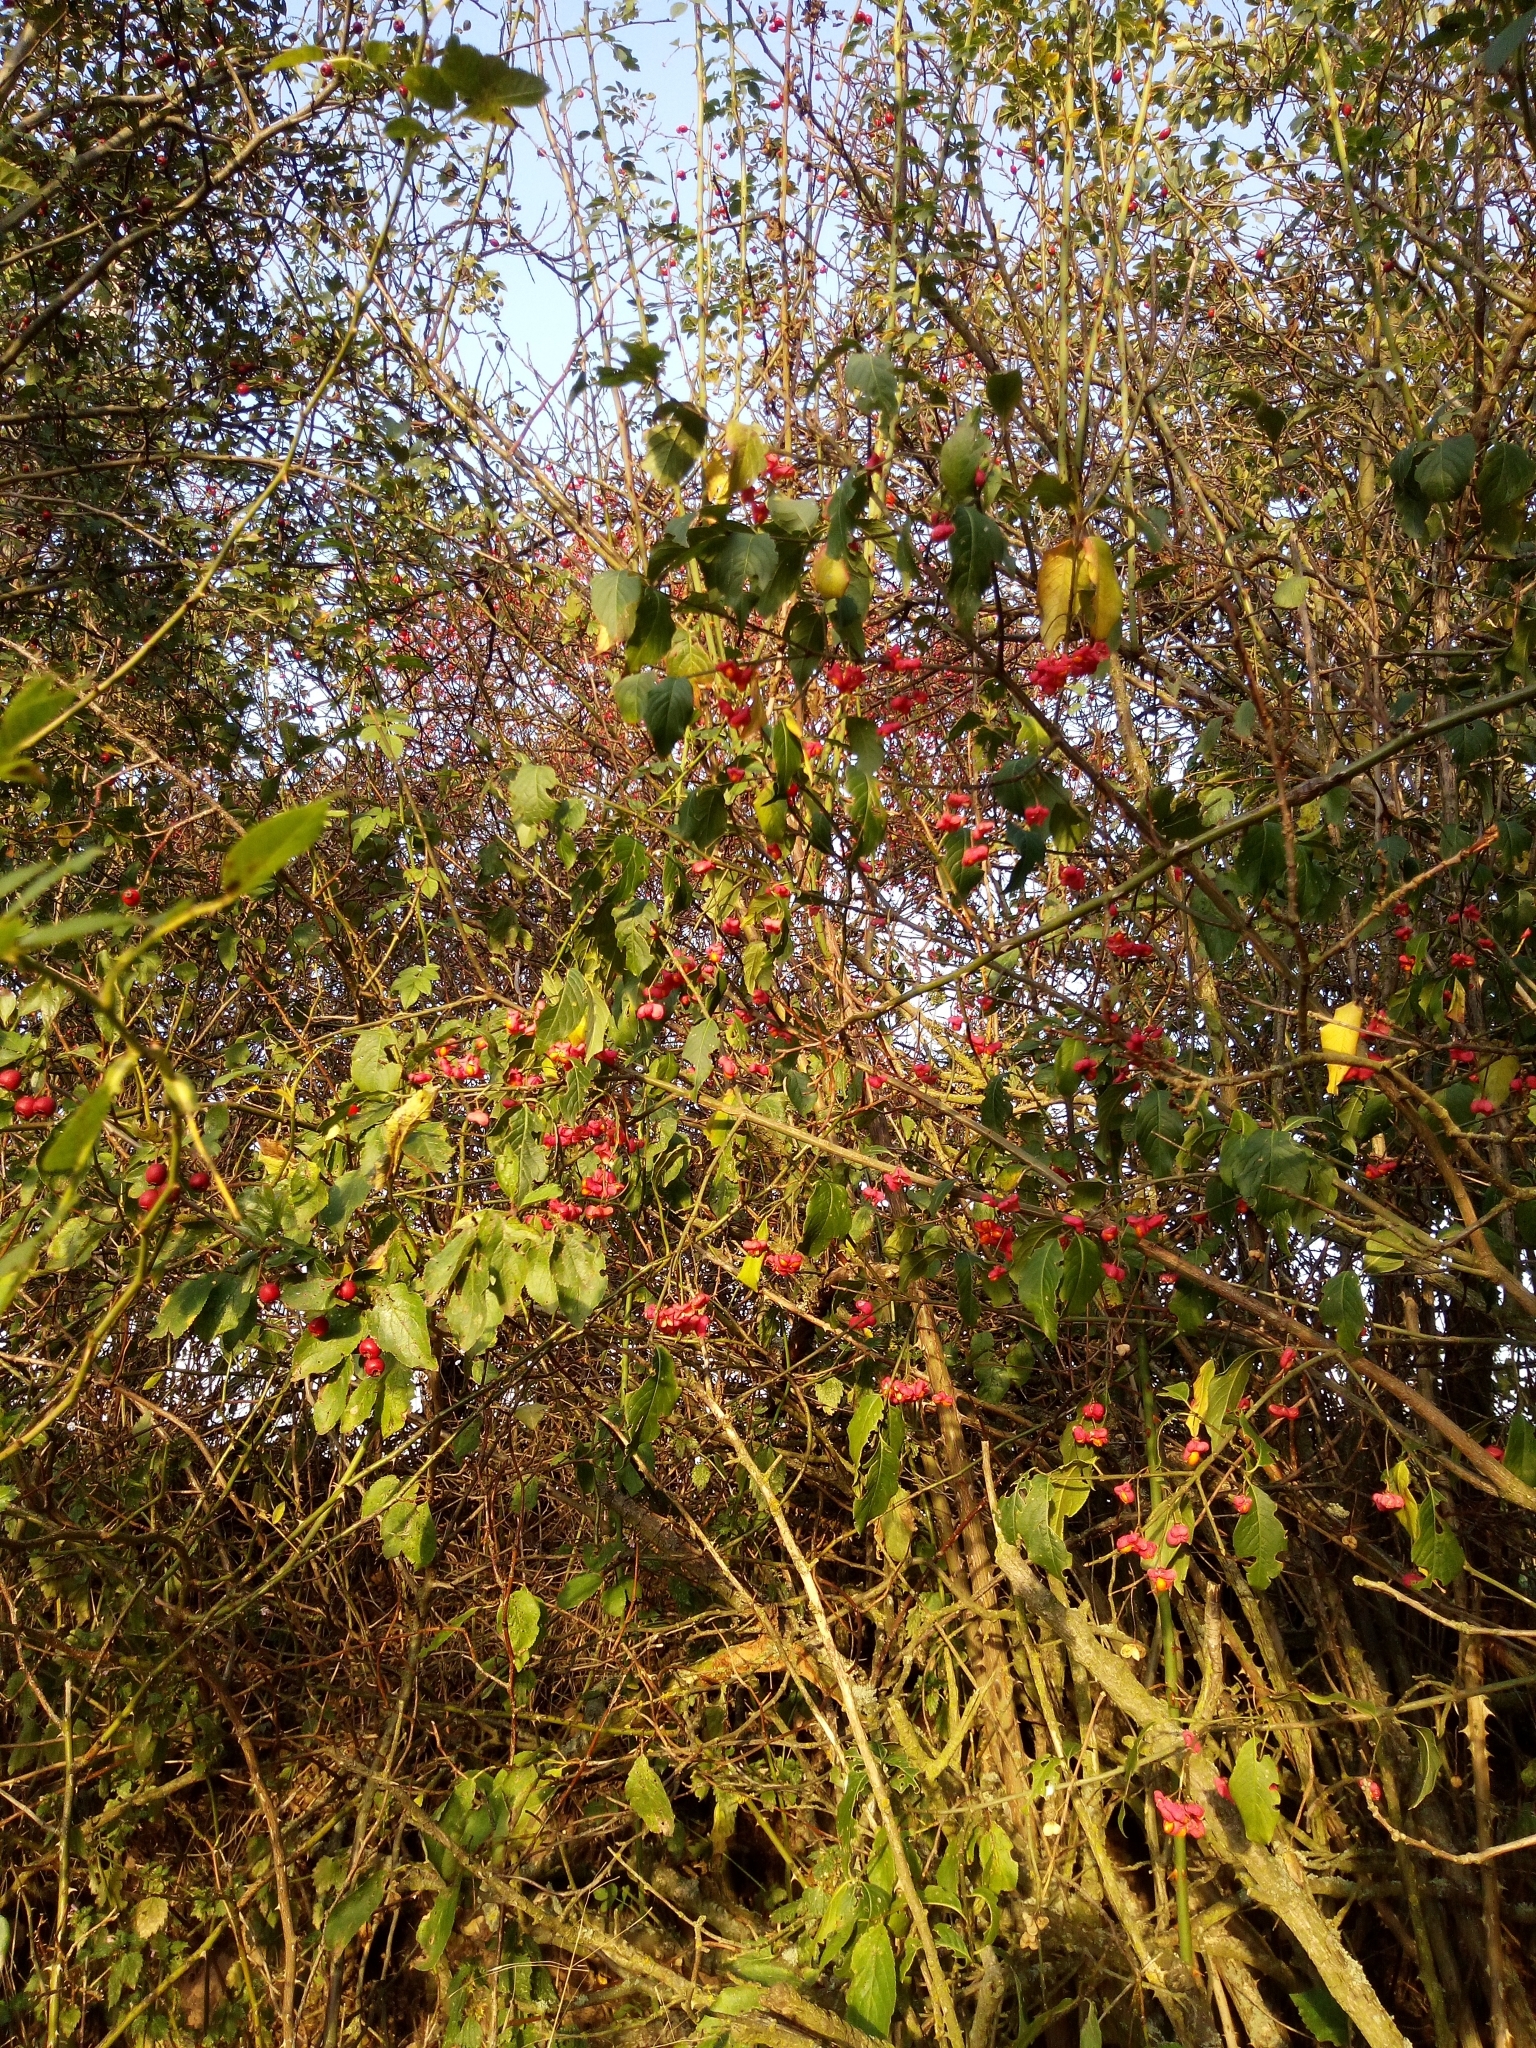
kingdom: Plantae
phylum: Tracheophyta
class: Magnoliopsida
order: Celastrales
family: Celastraceae
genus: Euonymus
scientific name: Euonymus europaeus
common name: Spindle
